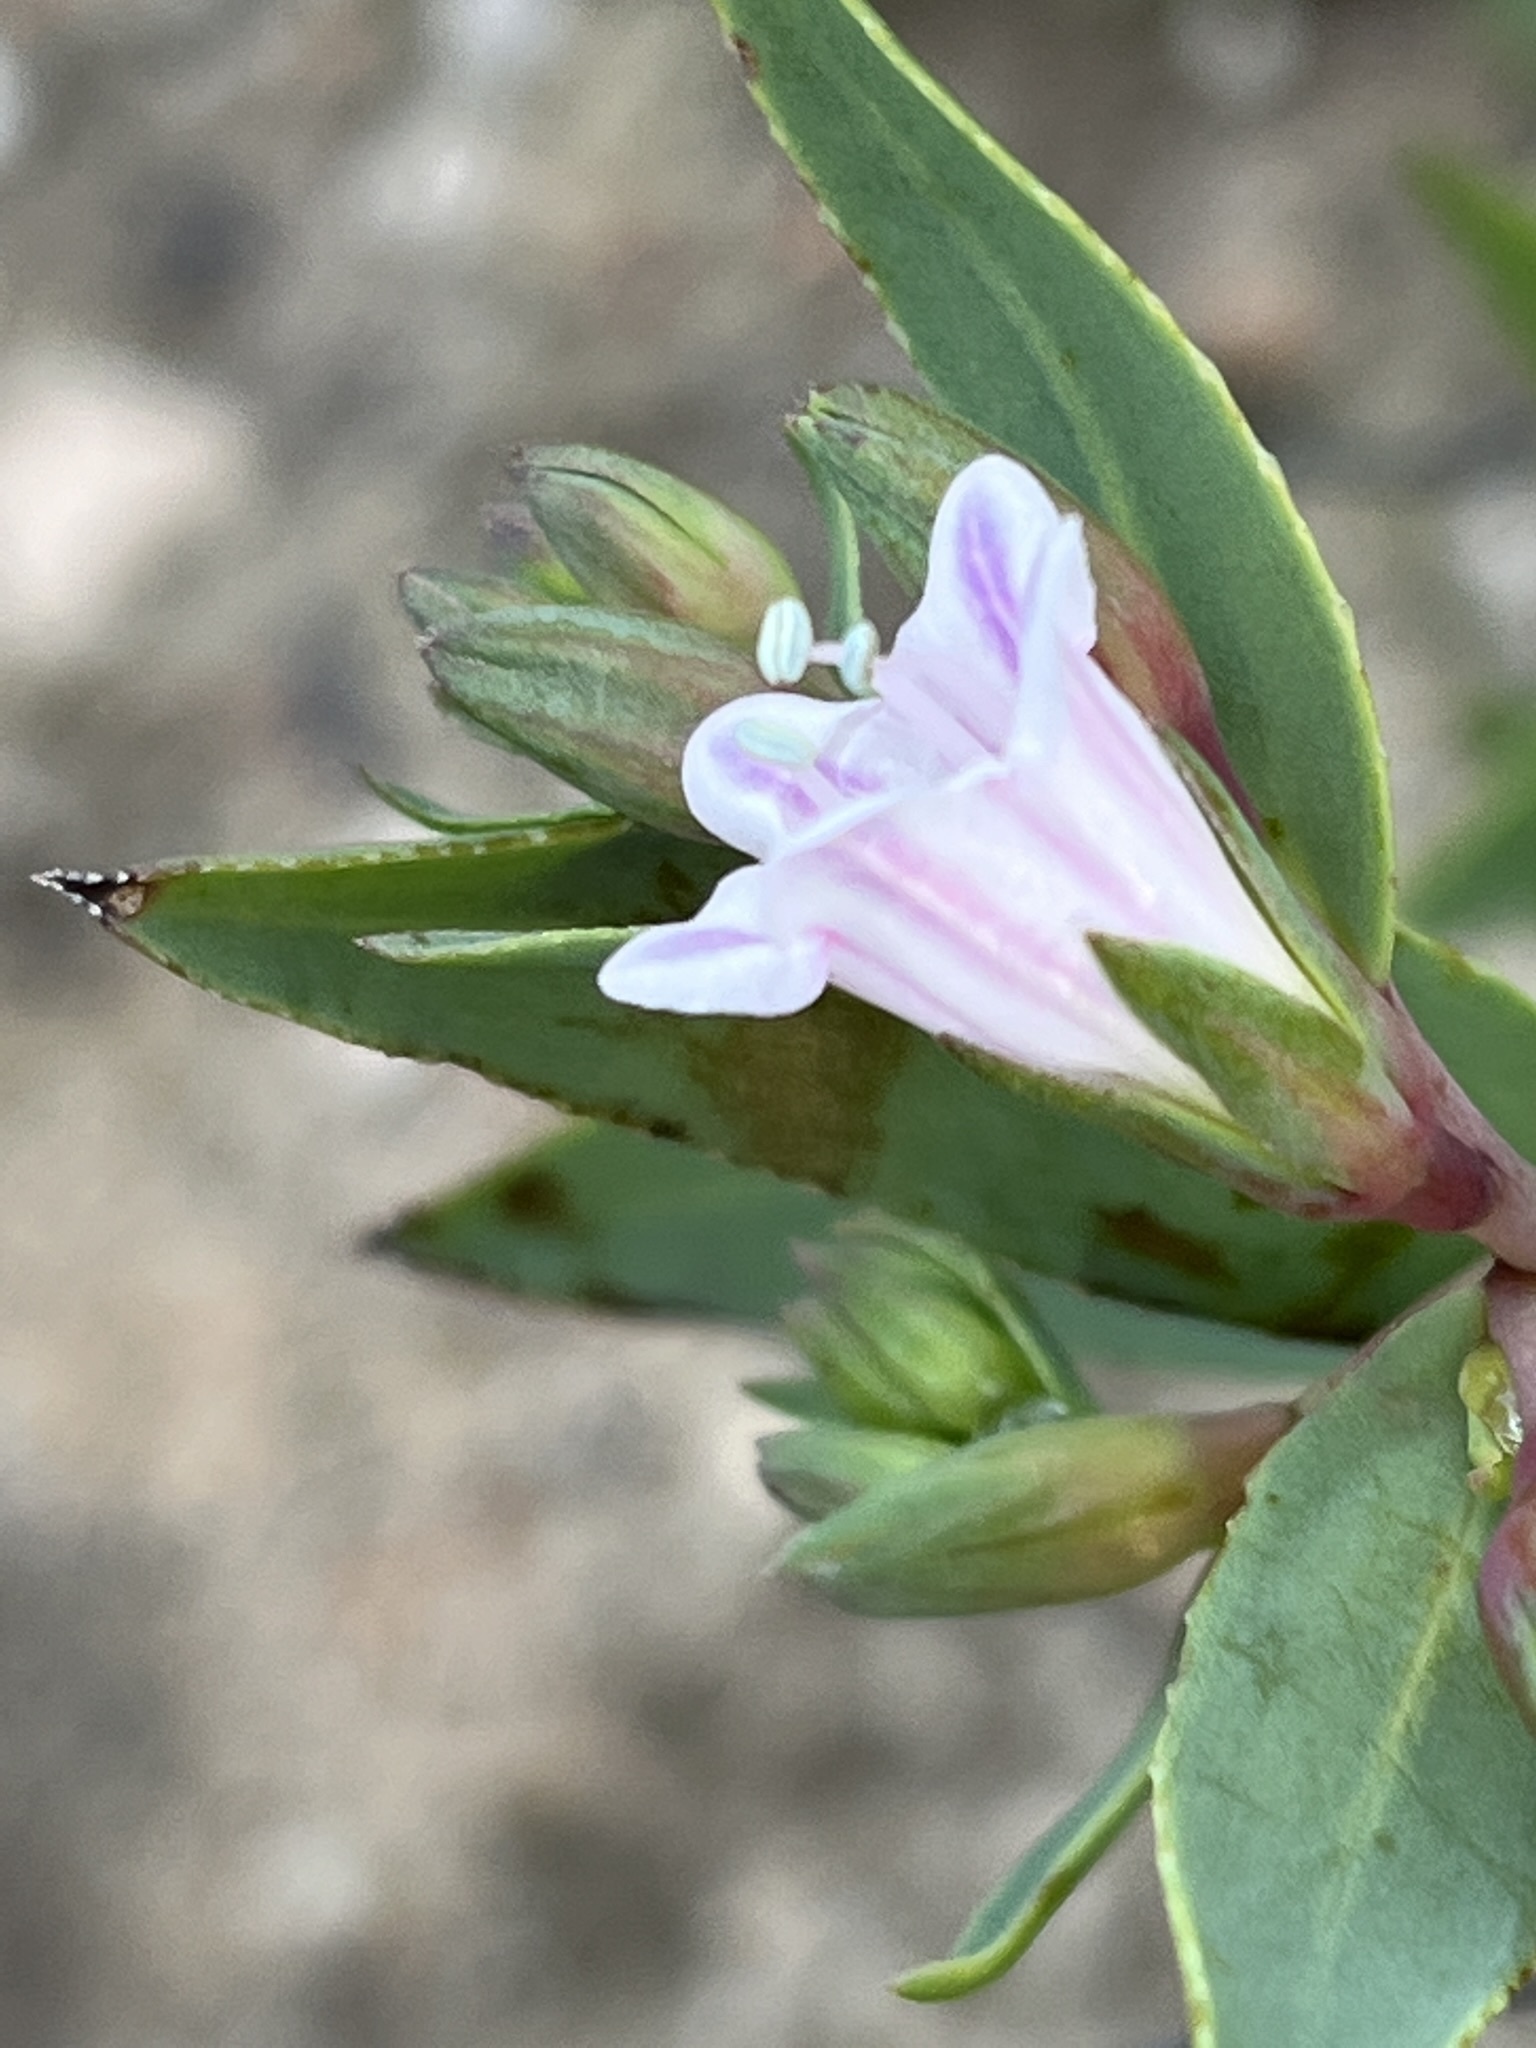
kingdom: Plantae
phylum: Tracheophyta
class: Magnoliopsida
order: Boraginales
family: Boraginaceae
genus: Lobostemon
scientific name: Lobostemon glaucophyllus
